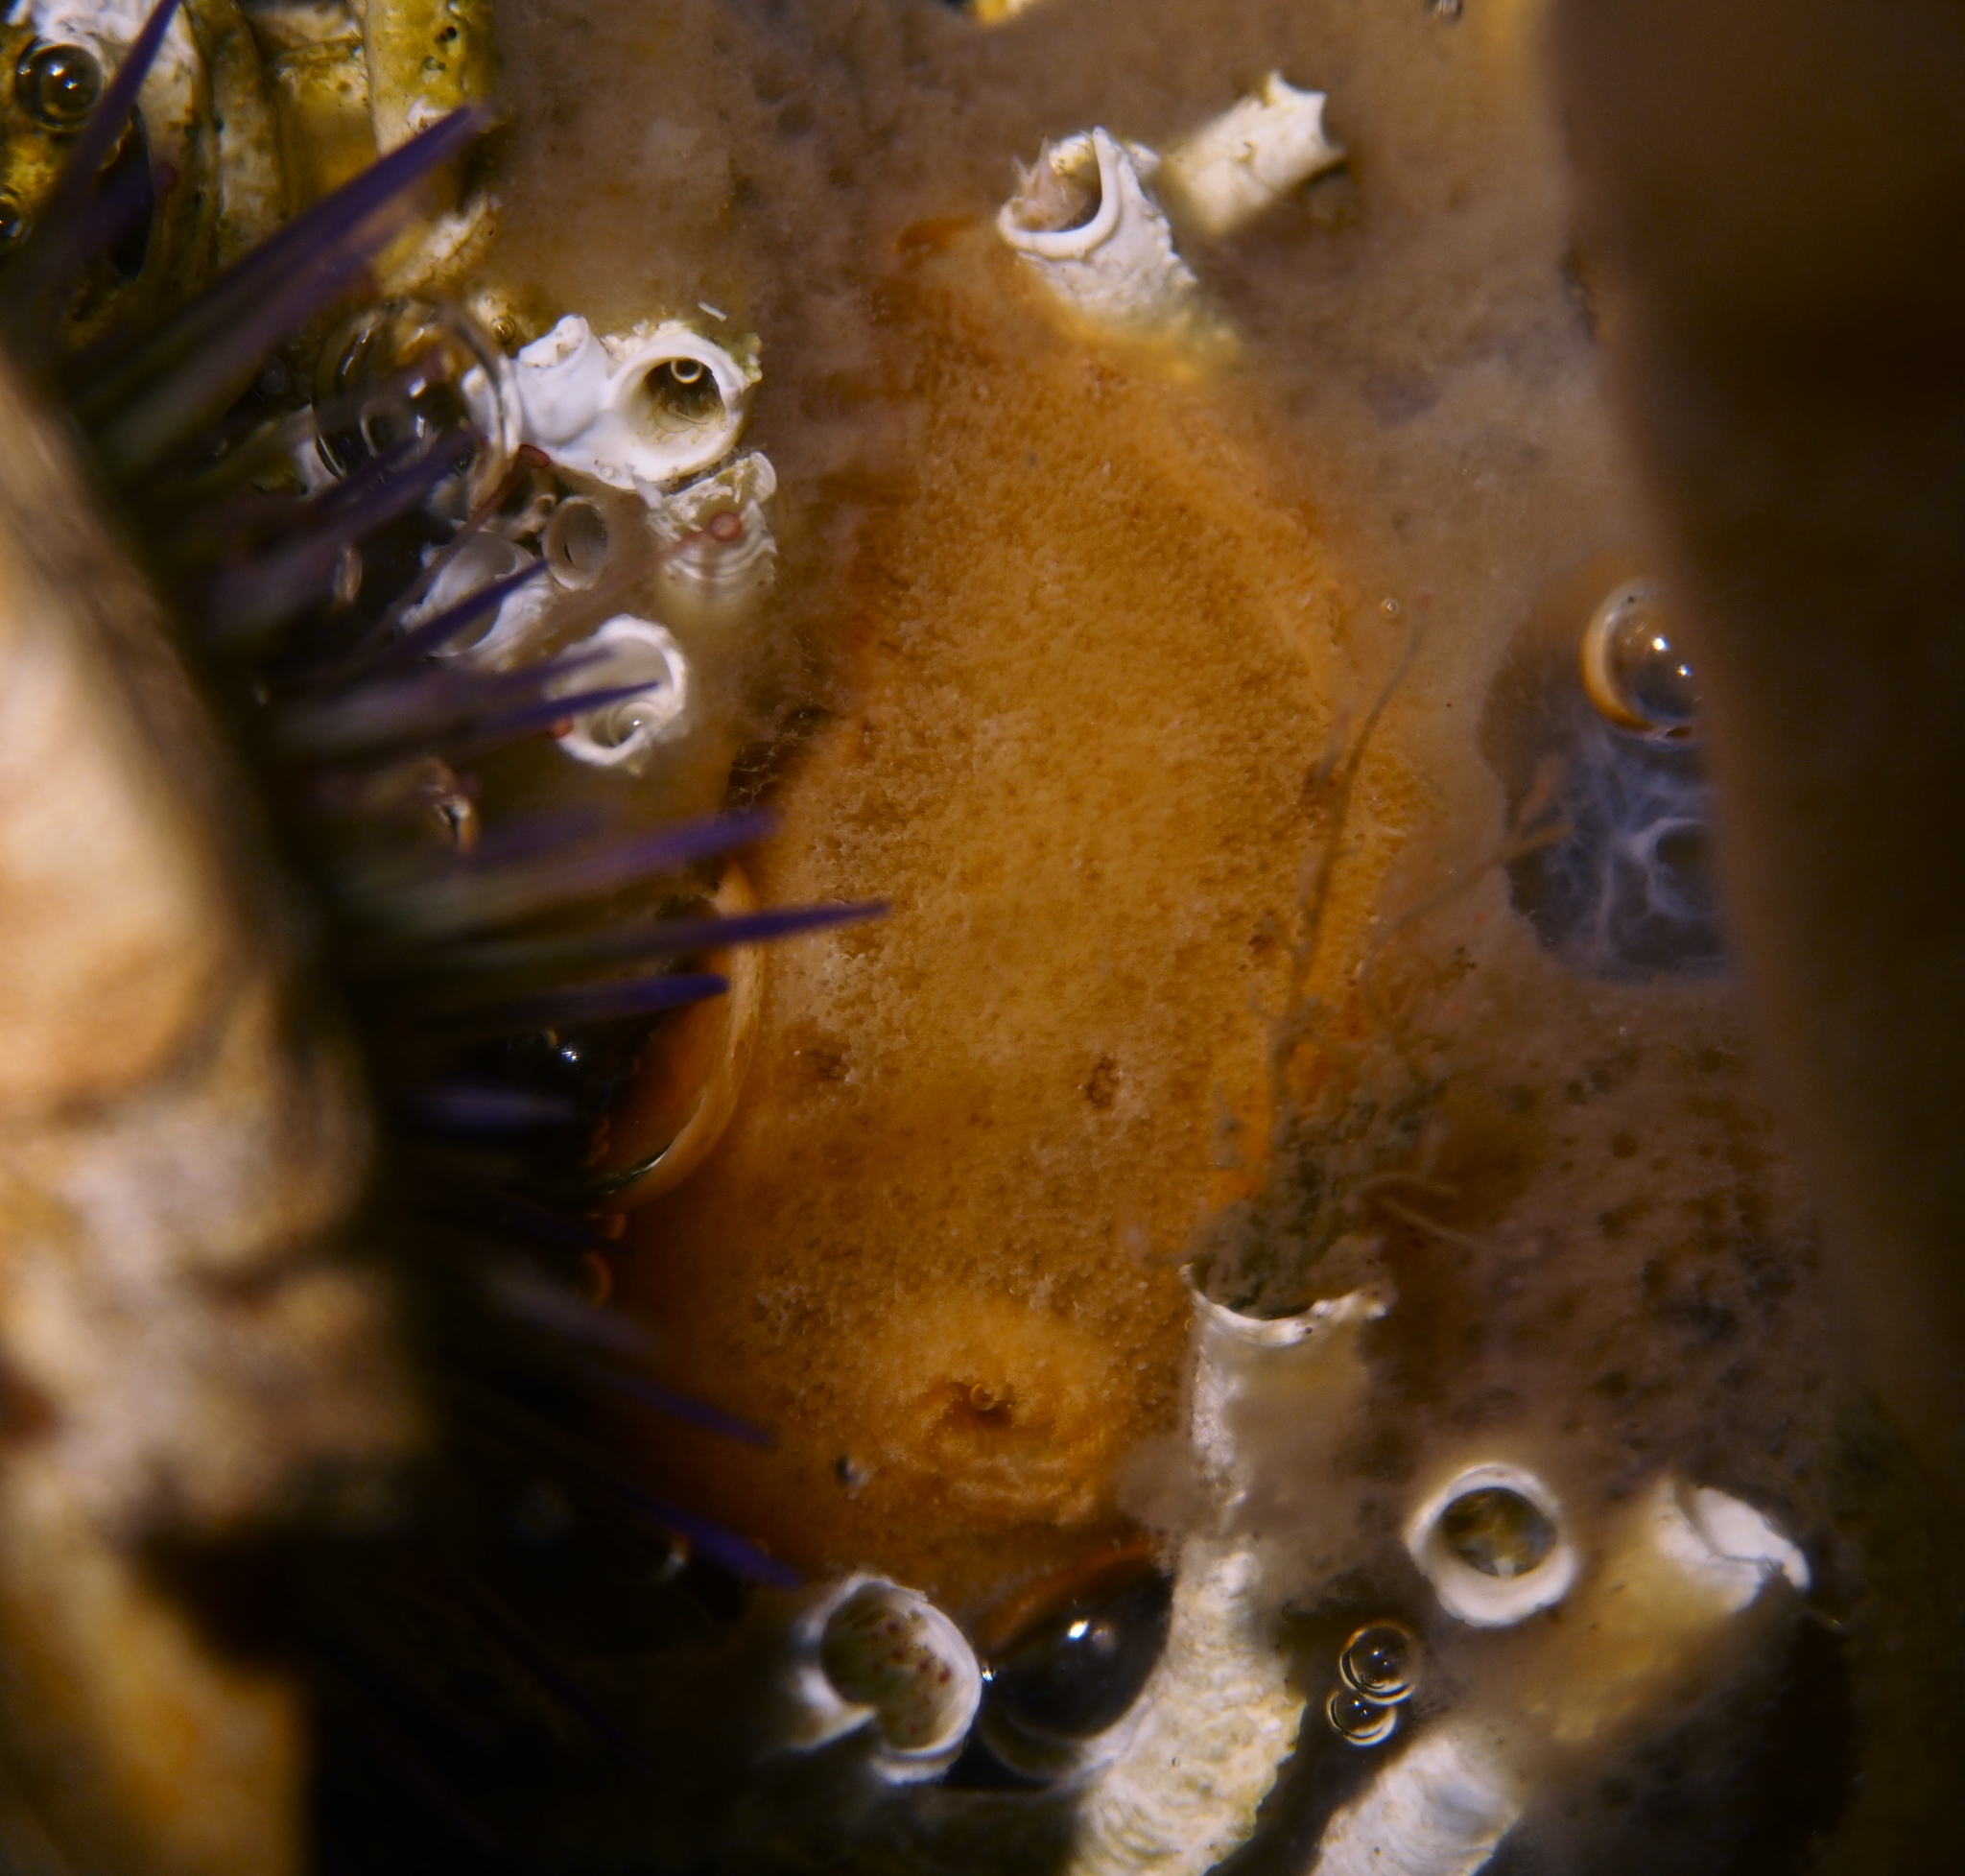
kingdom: Animalia
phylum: Mollusca
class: Gastropoda
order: Nudibranchia
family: Discodorididae
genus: Jorunna
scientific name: Jorunna tomentosa
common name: Grey sea slug
